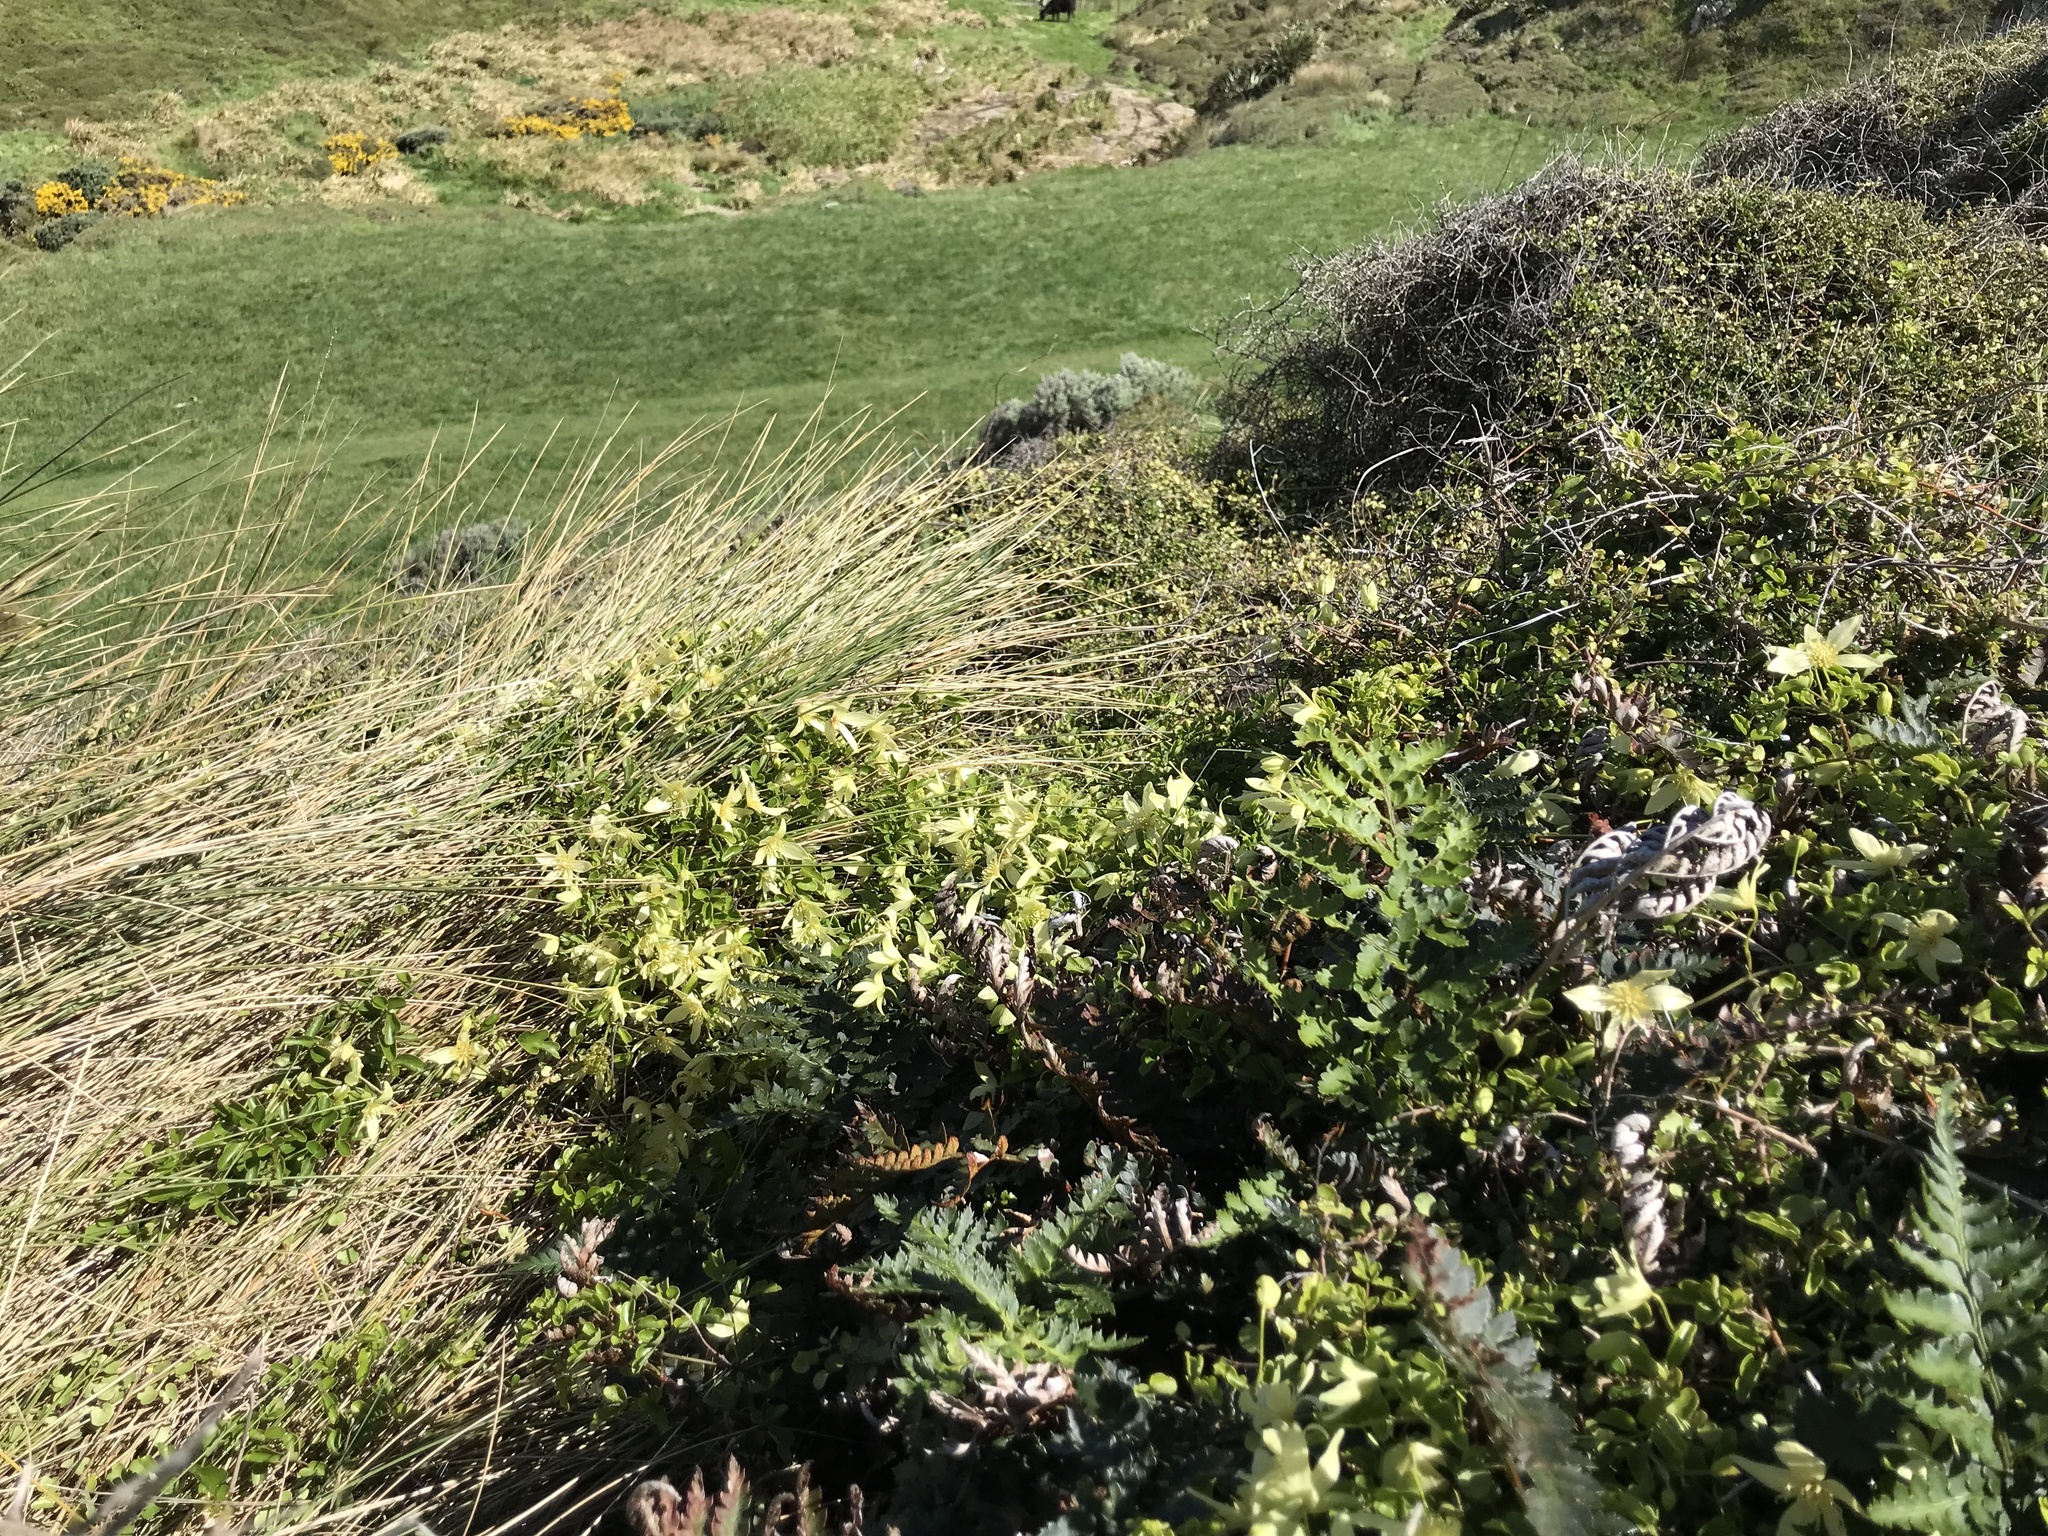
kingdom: Plantae
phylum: Tracheophyta
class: Magnoliopsida
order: Ranunculales
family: Ranunculaceae
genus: Clematis
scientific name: Clematis forsteri
